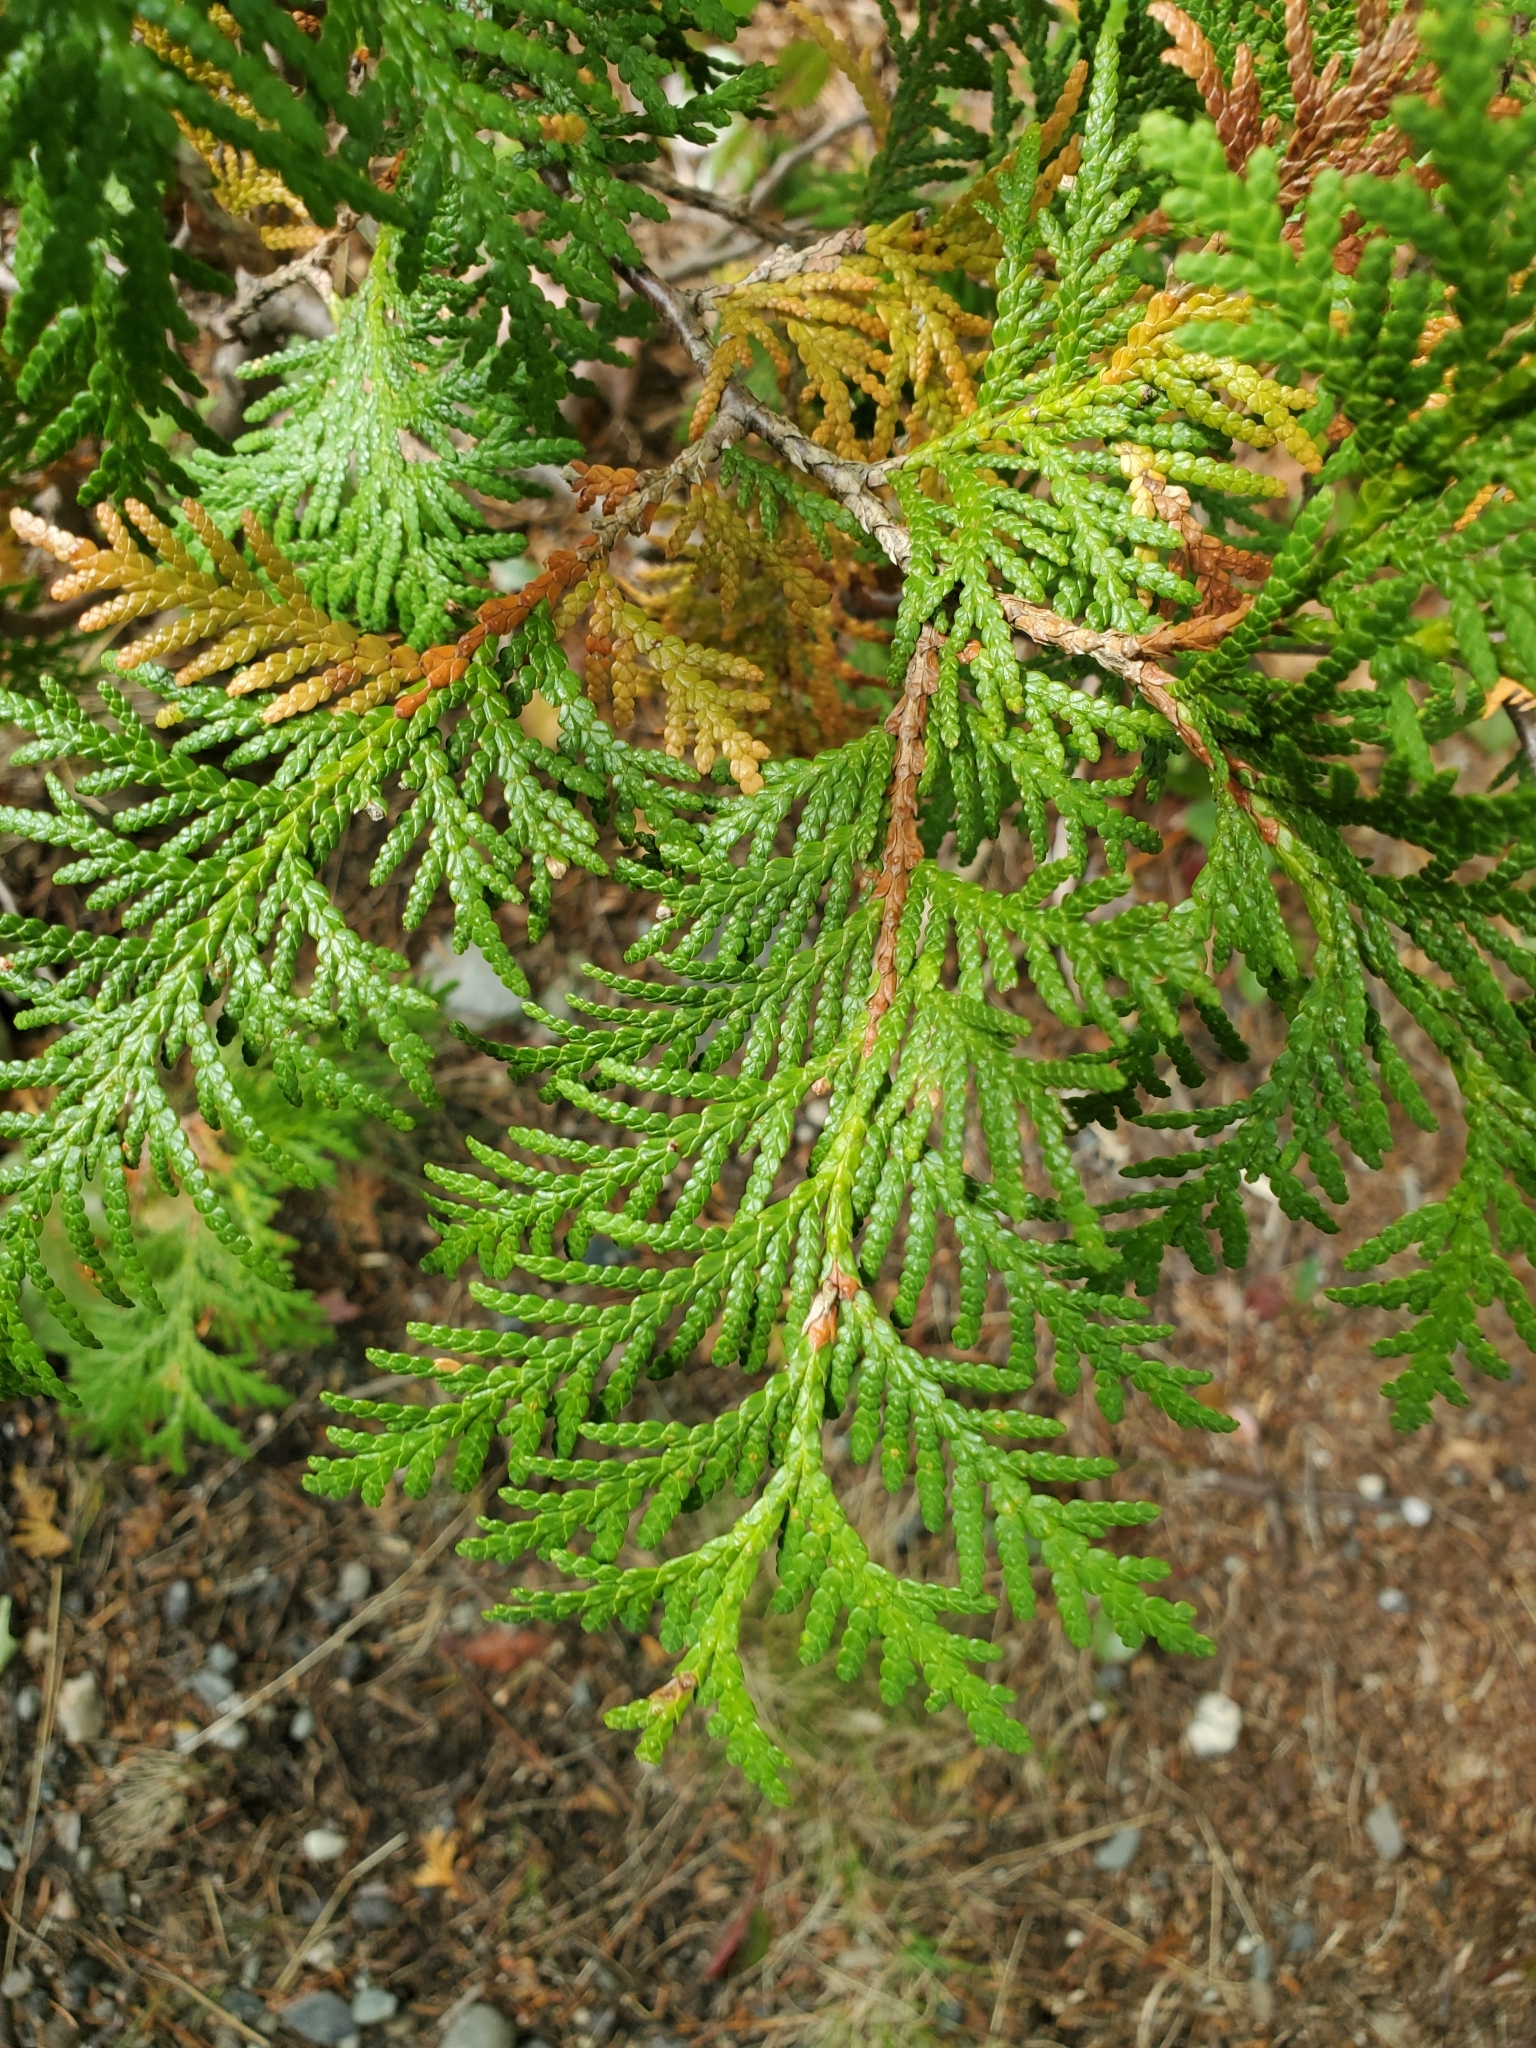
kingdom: Plantae
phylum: Tracheophyta
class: Pinopsida
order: Pinales
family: Cupressaceae
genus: Thuja
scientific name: Thuja occidentalis
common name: Northern white-cedar
